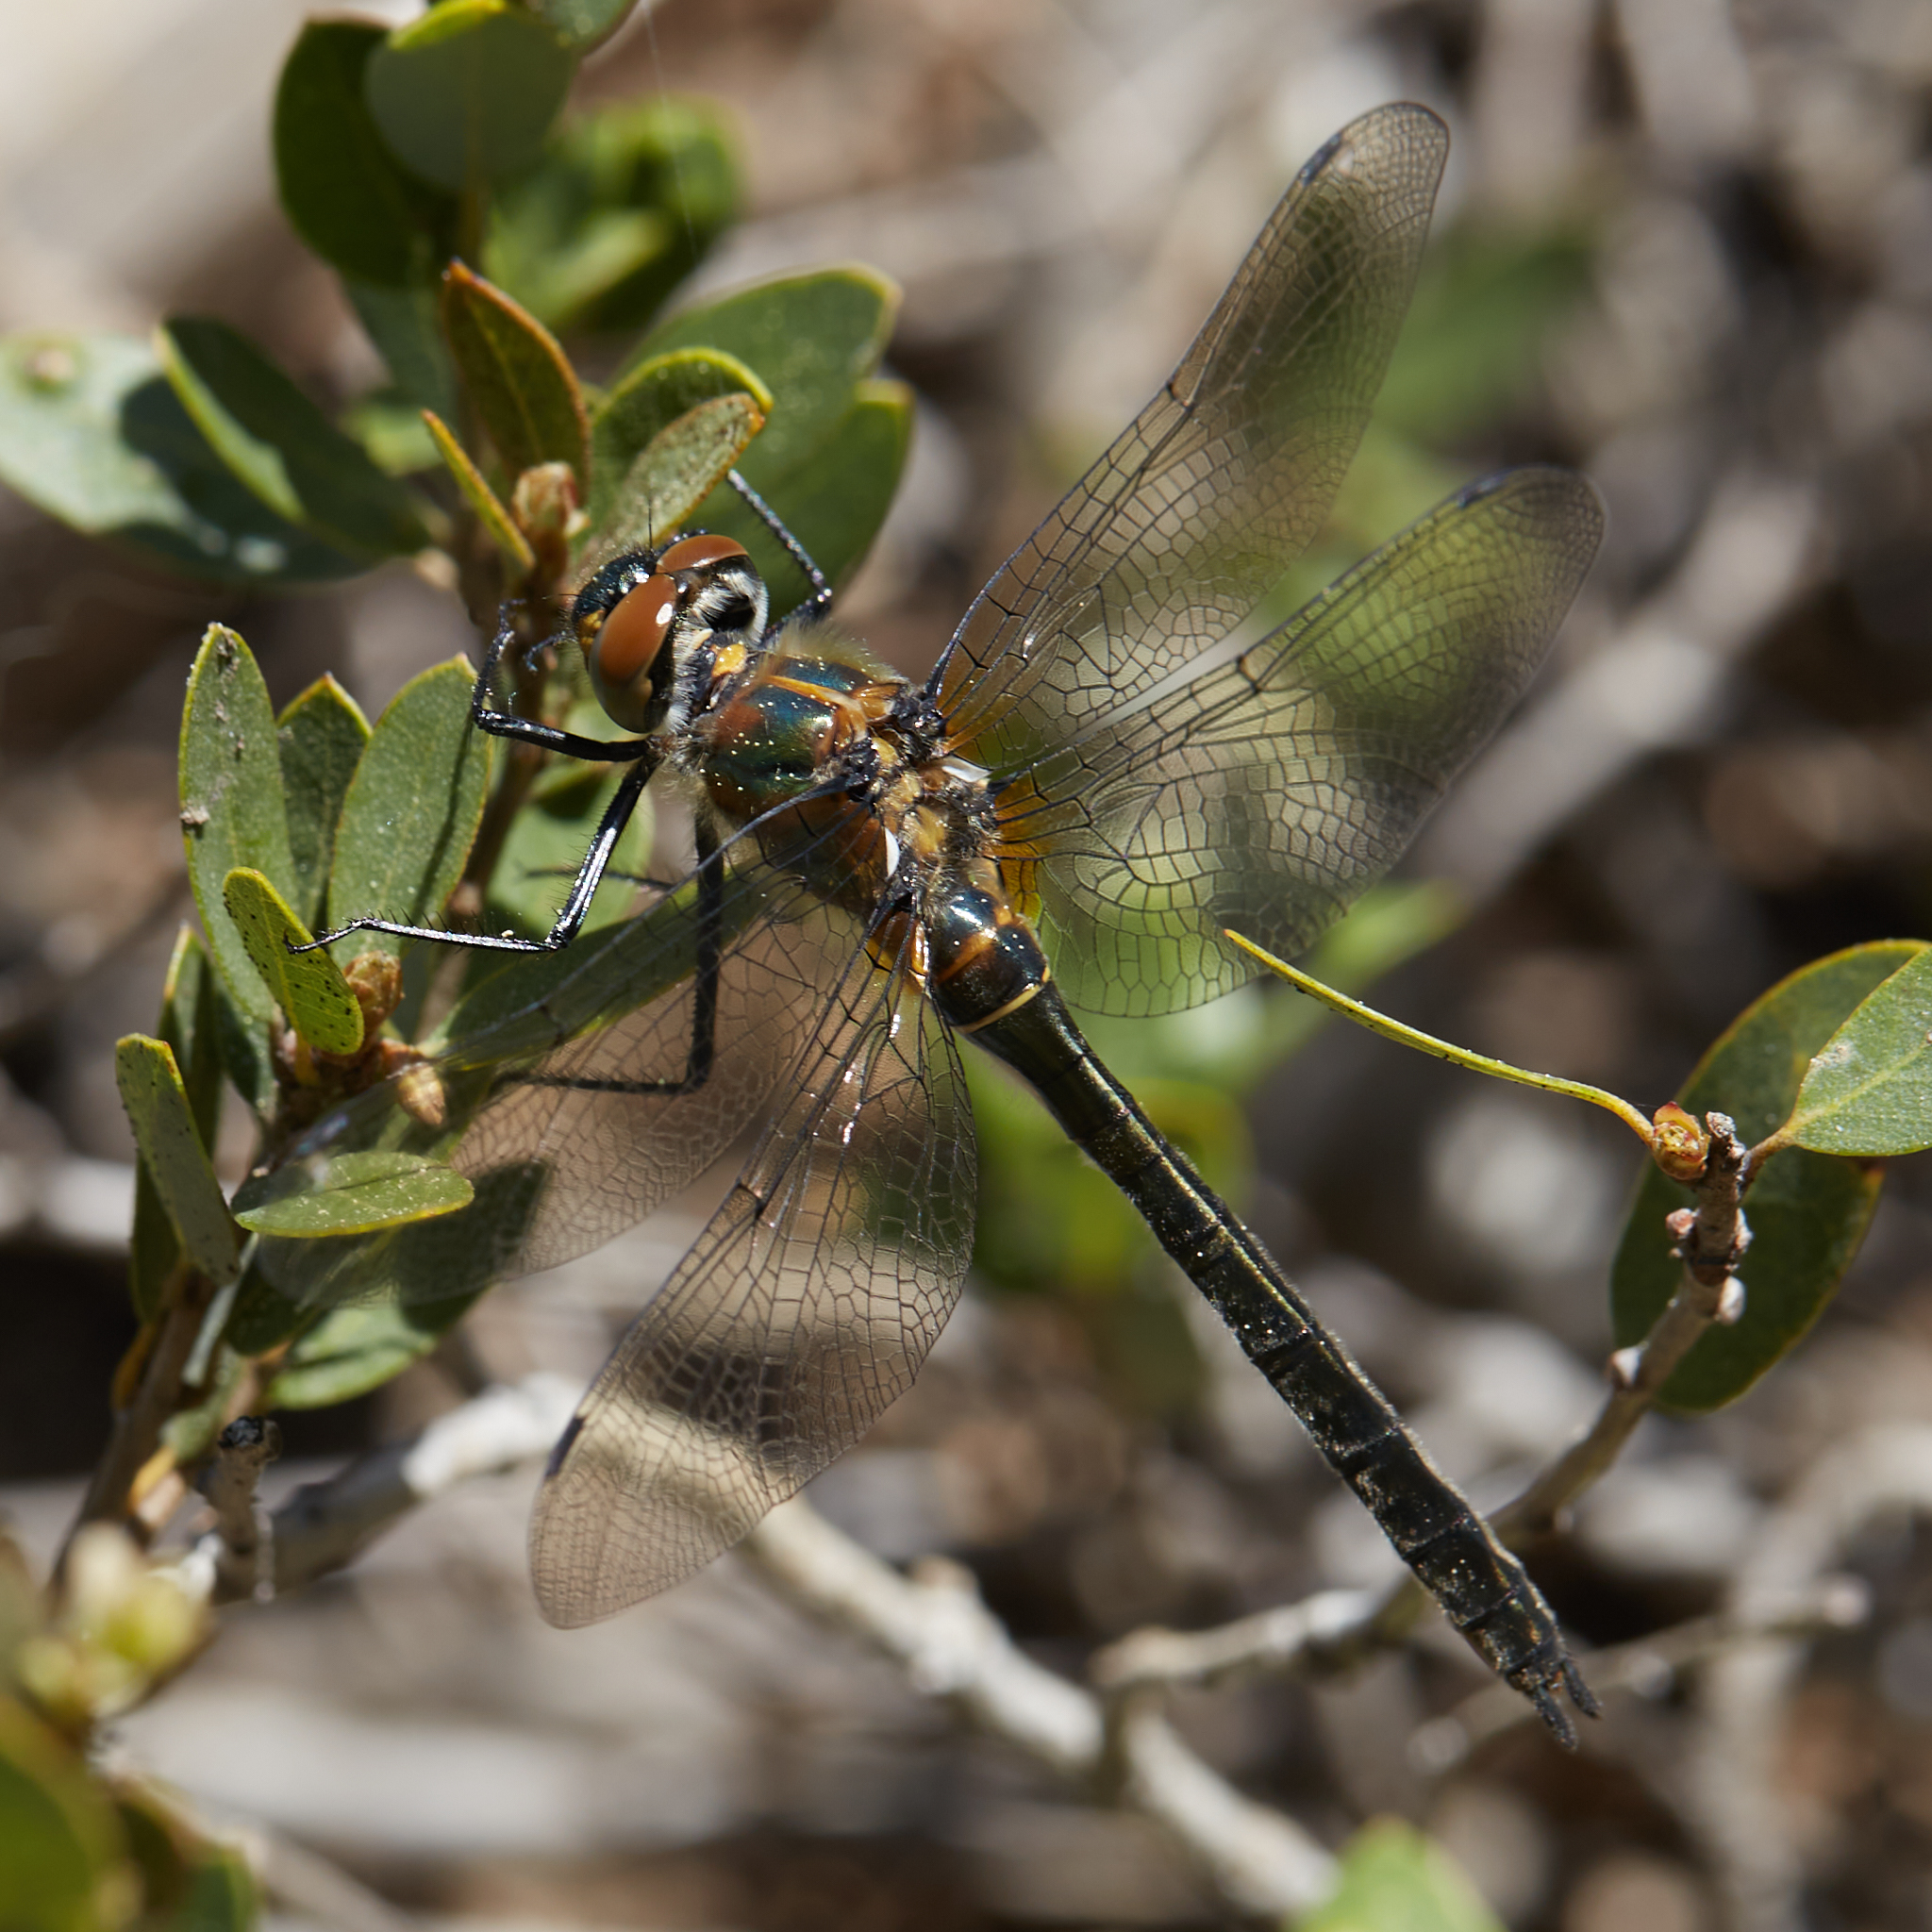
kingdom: Animalia
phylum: Arthropoda
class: Insecta
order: Odonata
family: Corduliidae
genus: Cordulia
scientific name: Cordulia shurtleffii
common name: American emerald
